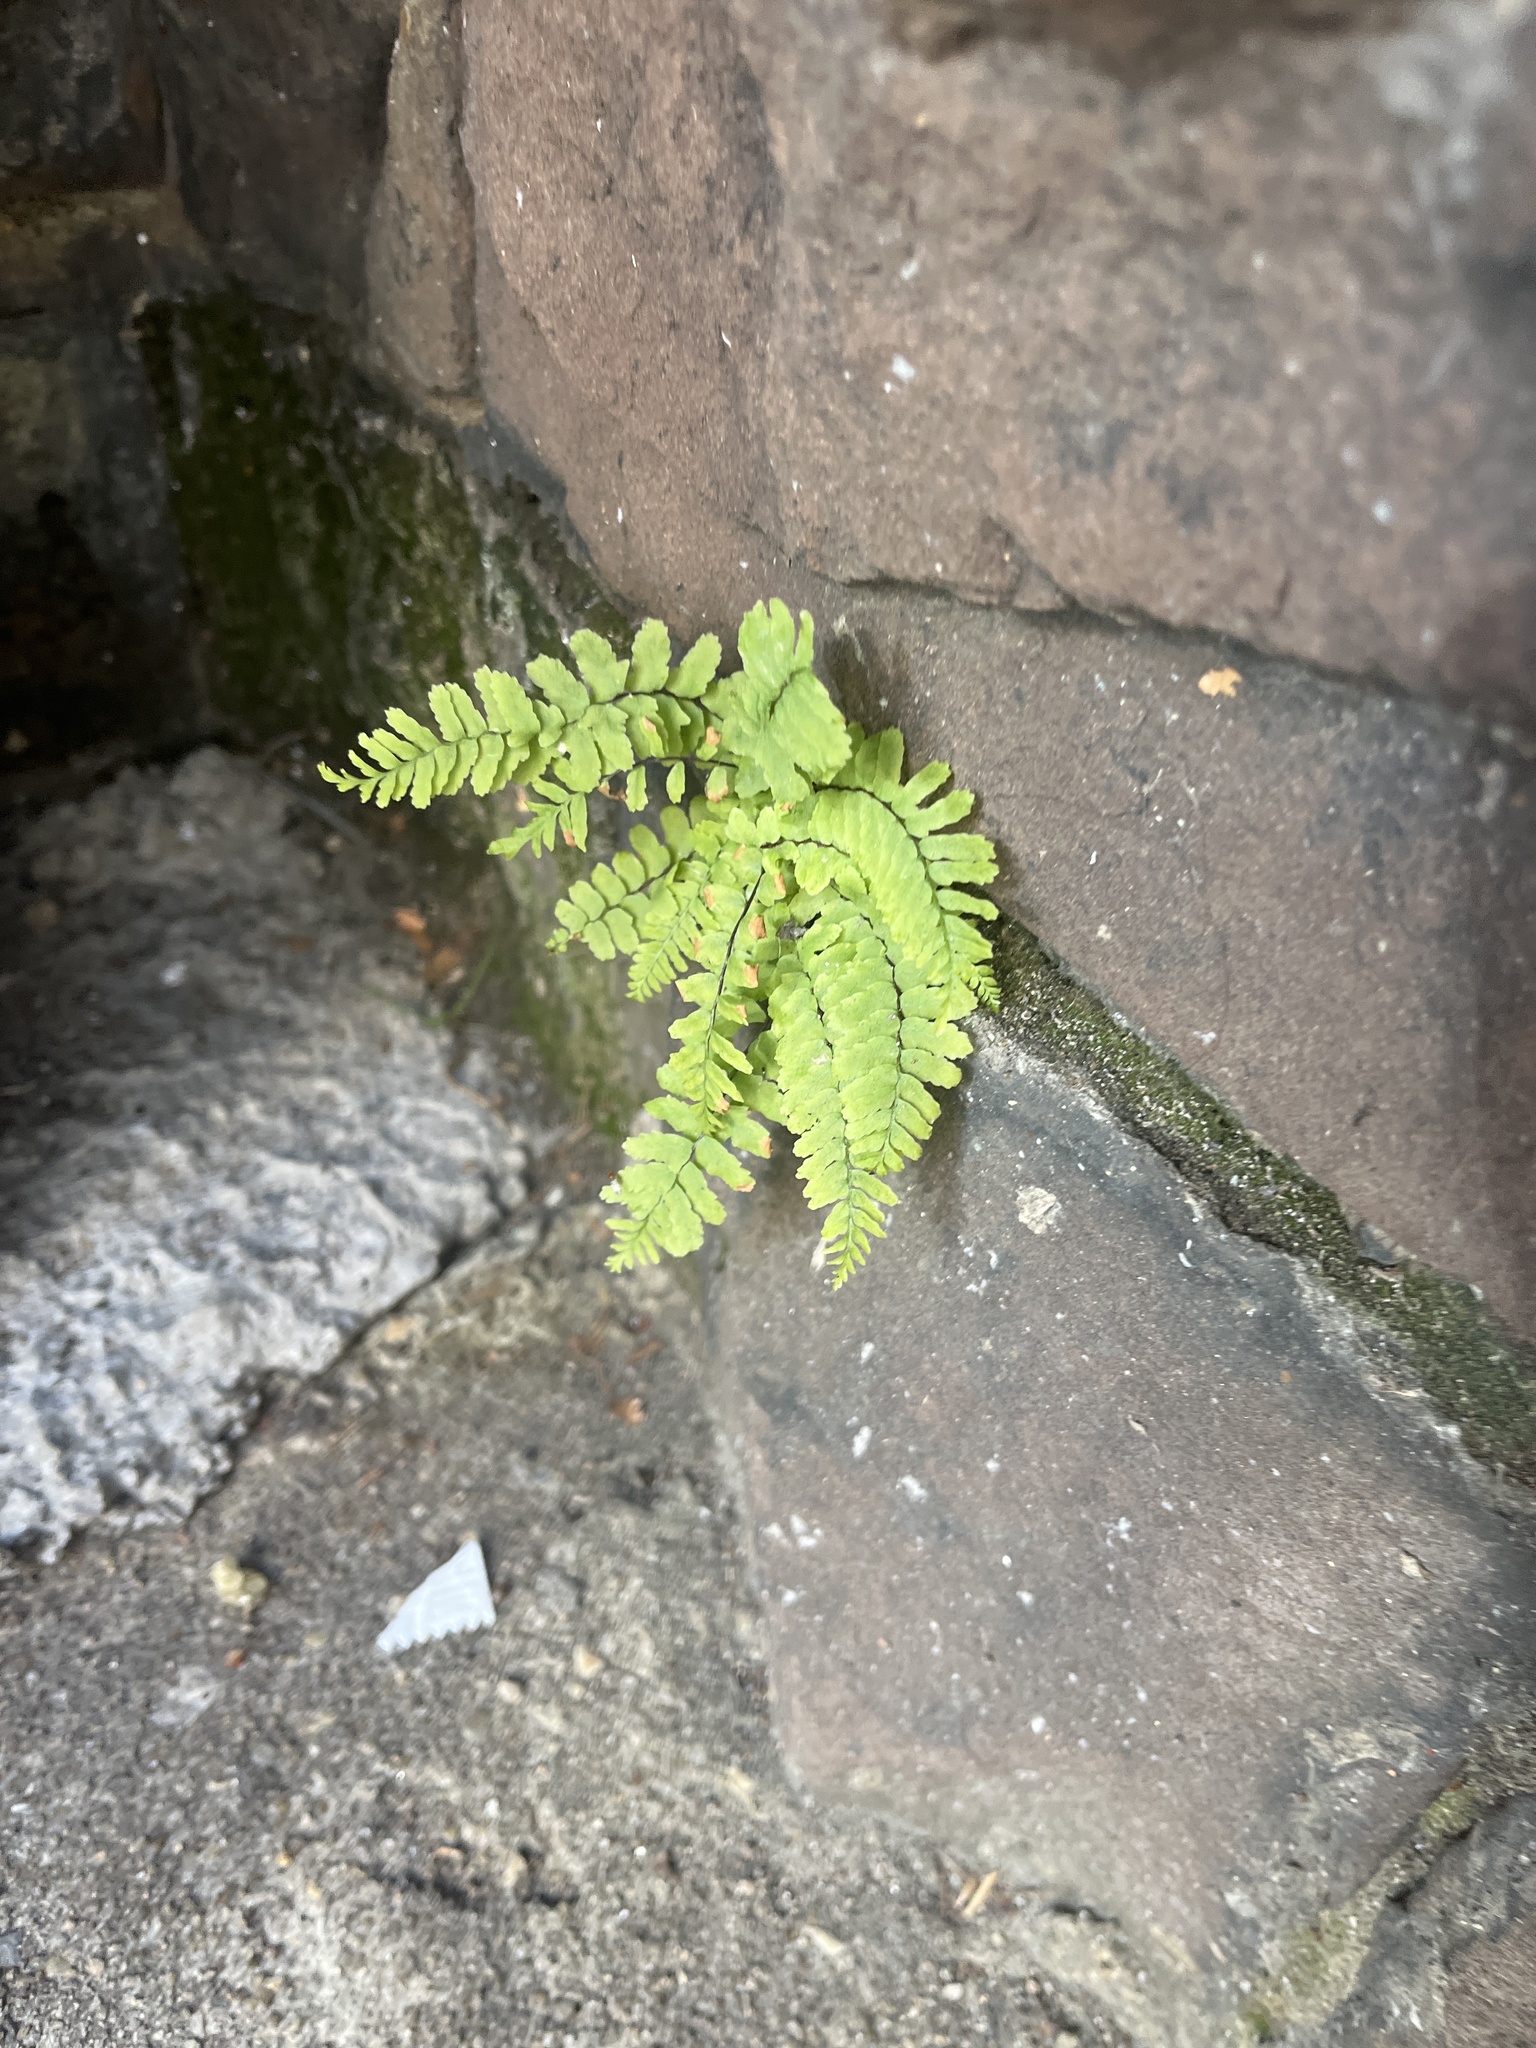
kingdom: Plantae
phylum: Tracheophyta
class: Polypodiopsida
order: Polypodiales
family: Aspleniaceae
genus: Asplenium
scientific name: Asplenium platyneuron
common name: Ebony spleenwort
